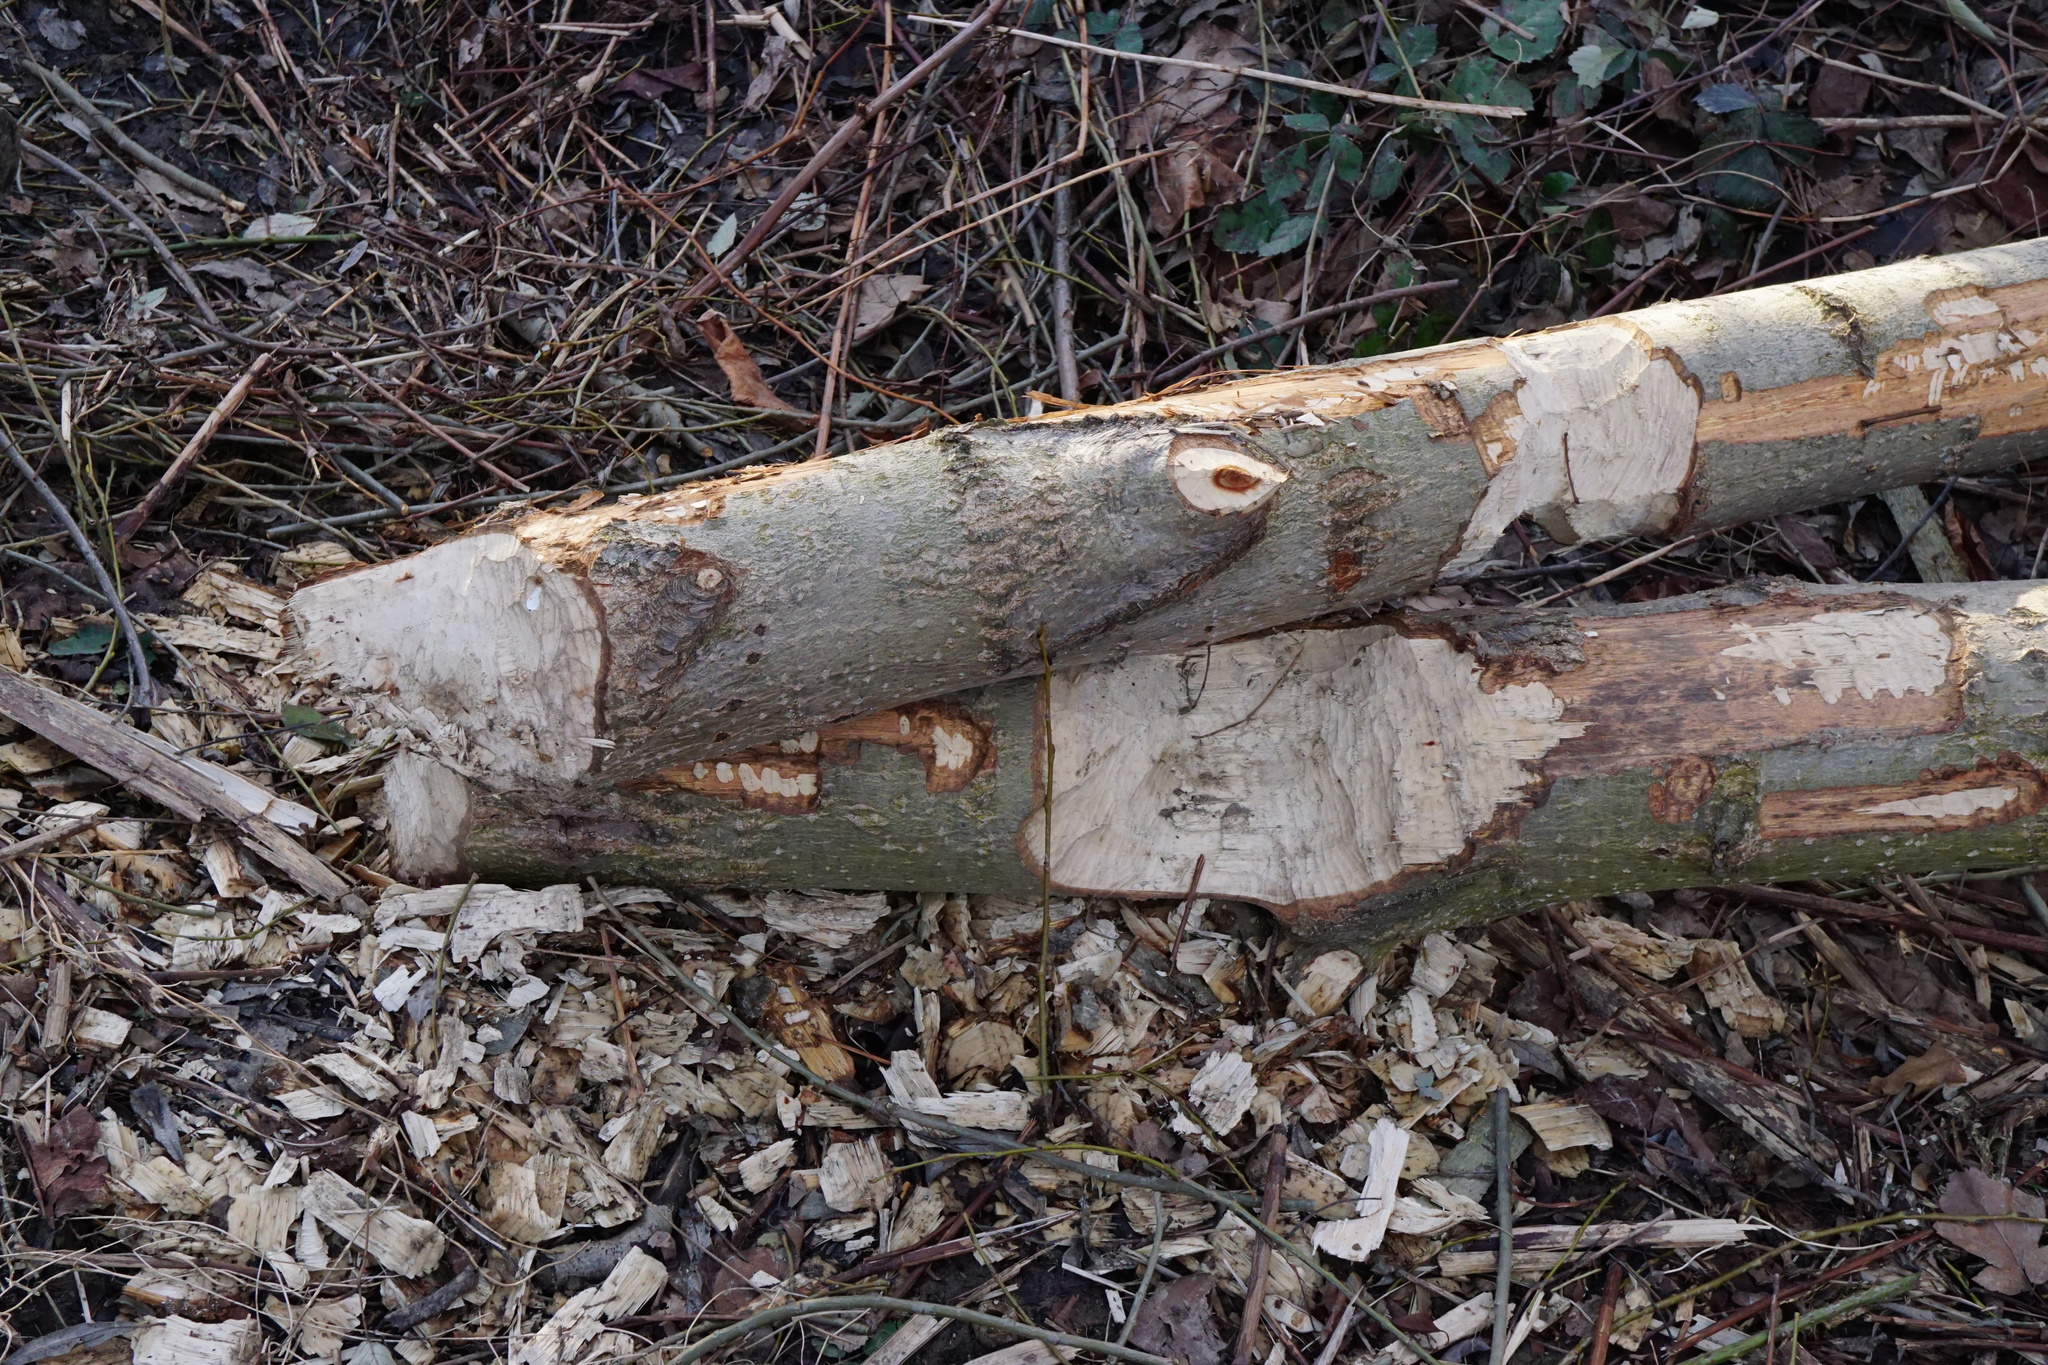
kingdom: Animalia
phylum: Chordata
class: Mammalia
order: Rodentia
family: Castoridae
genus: Castor
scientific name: Castor fiber
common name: Eurasian beaver
